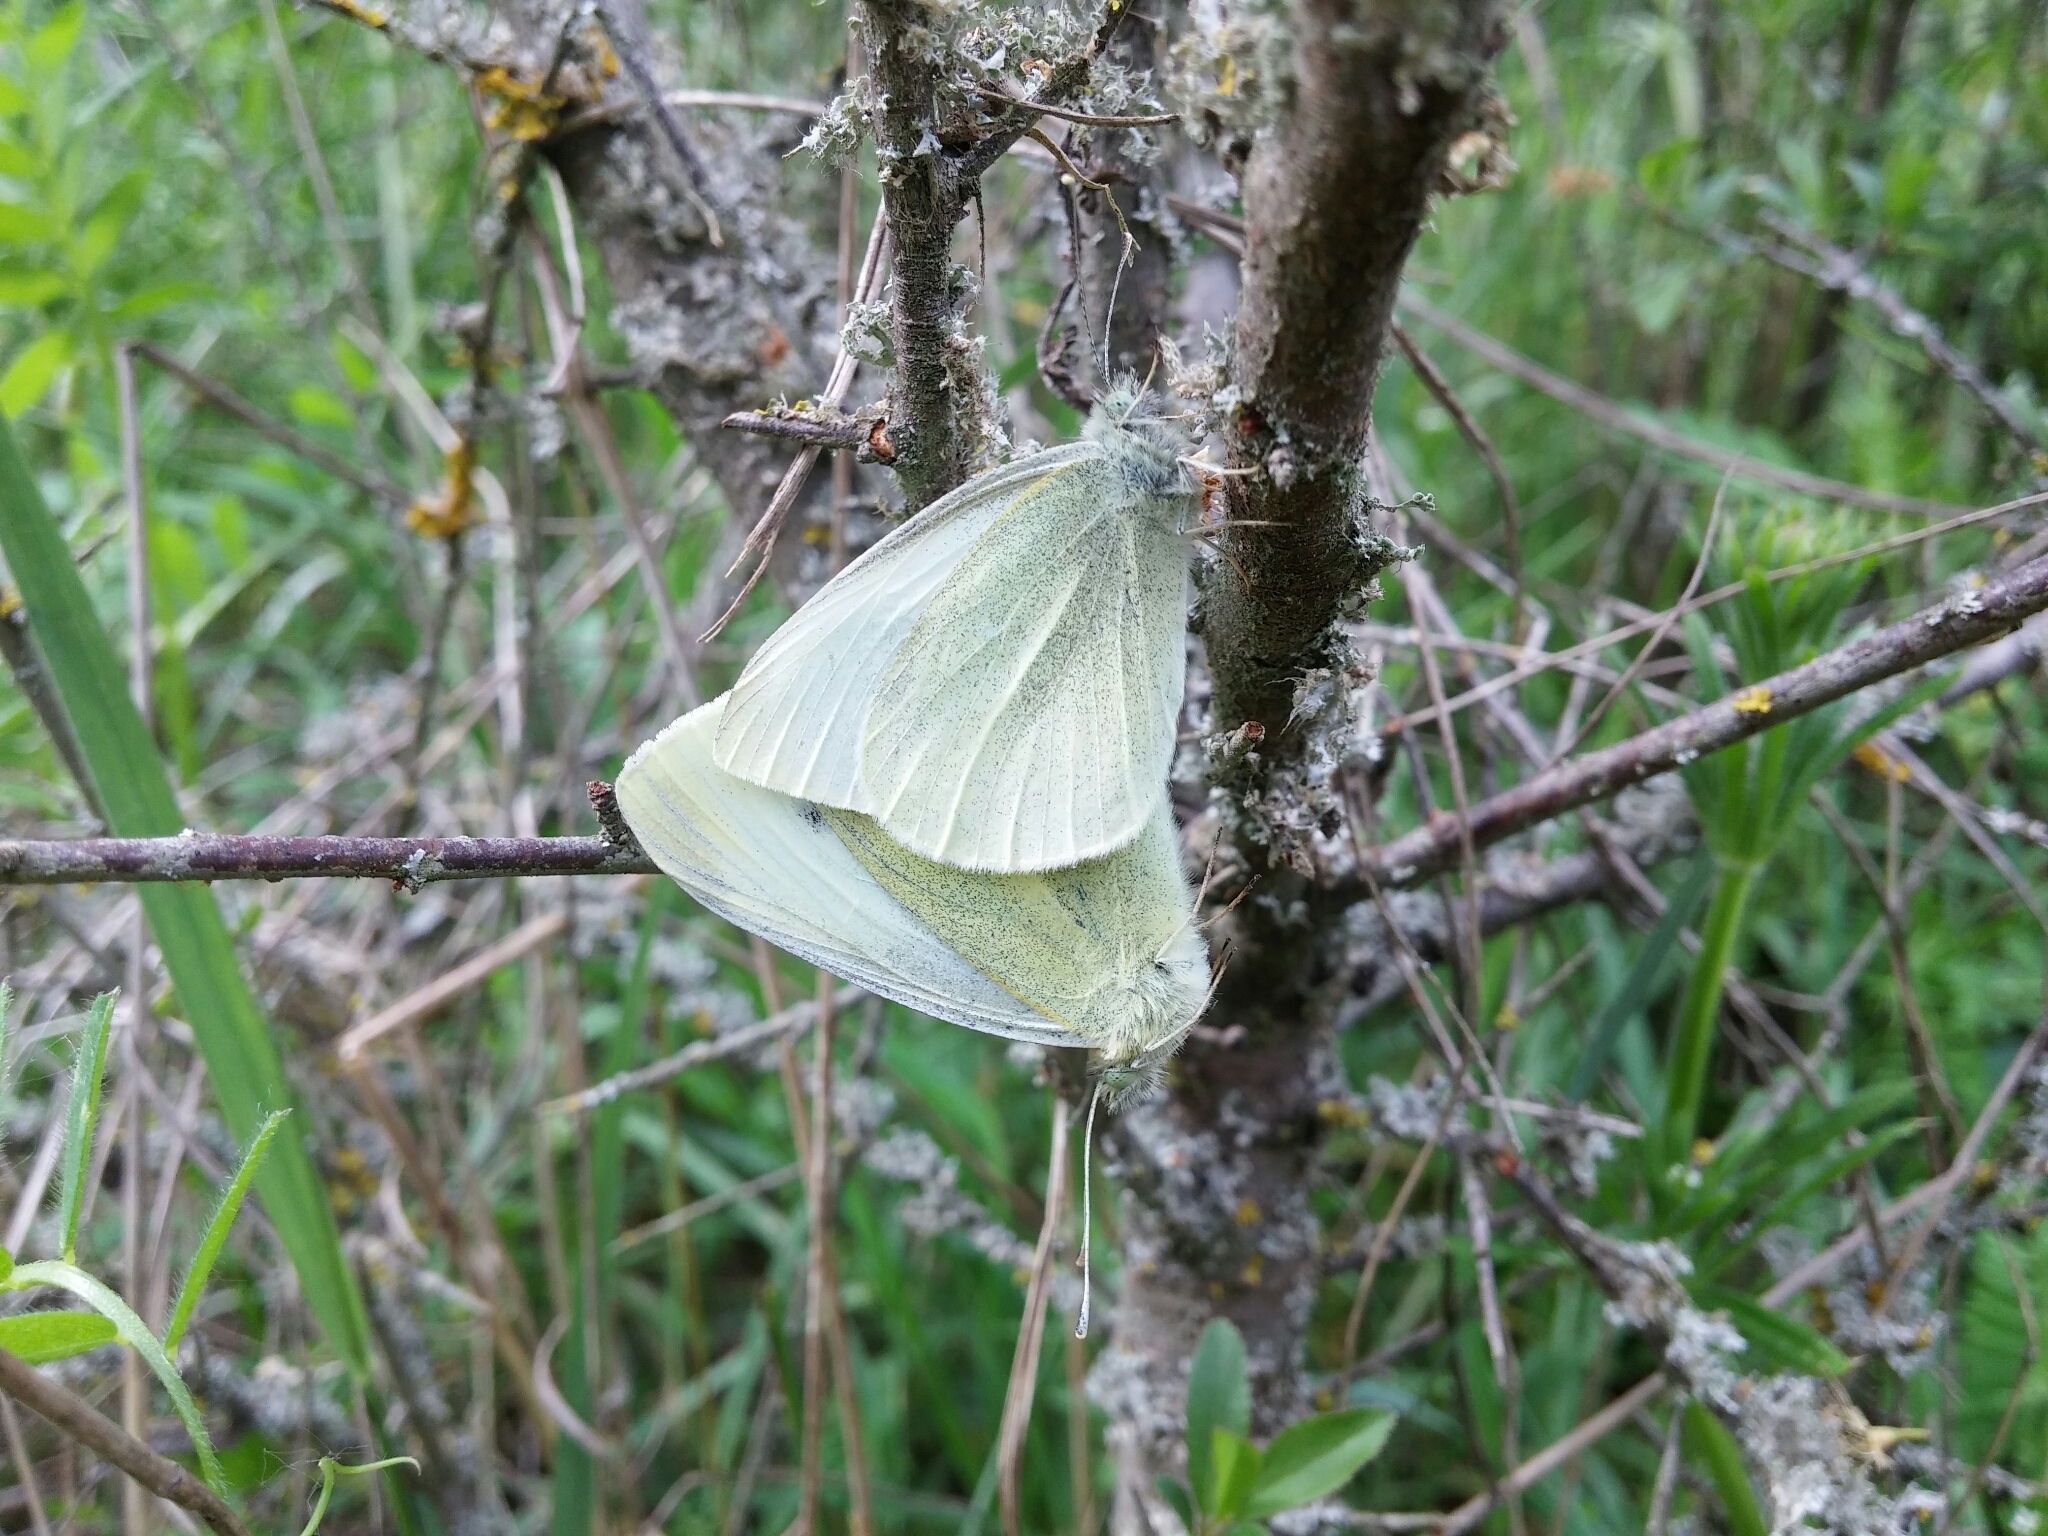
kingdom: Animalia
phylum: Arthropoda
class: Insecta
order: Lepidoptera
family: Pieridae
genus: Pieris
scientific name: Pieris rapae
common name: Small white
